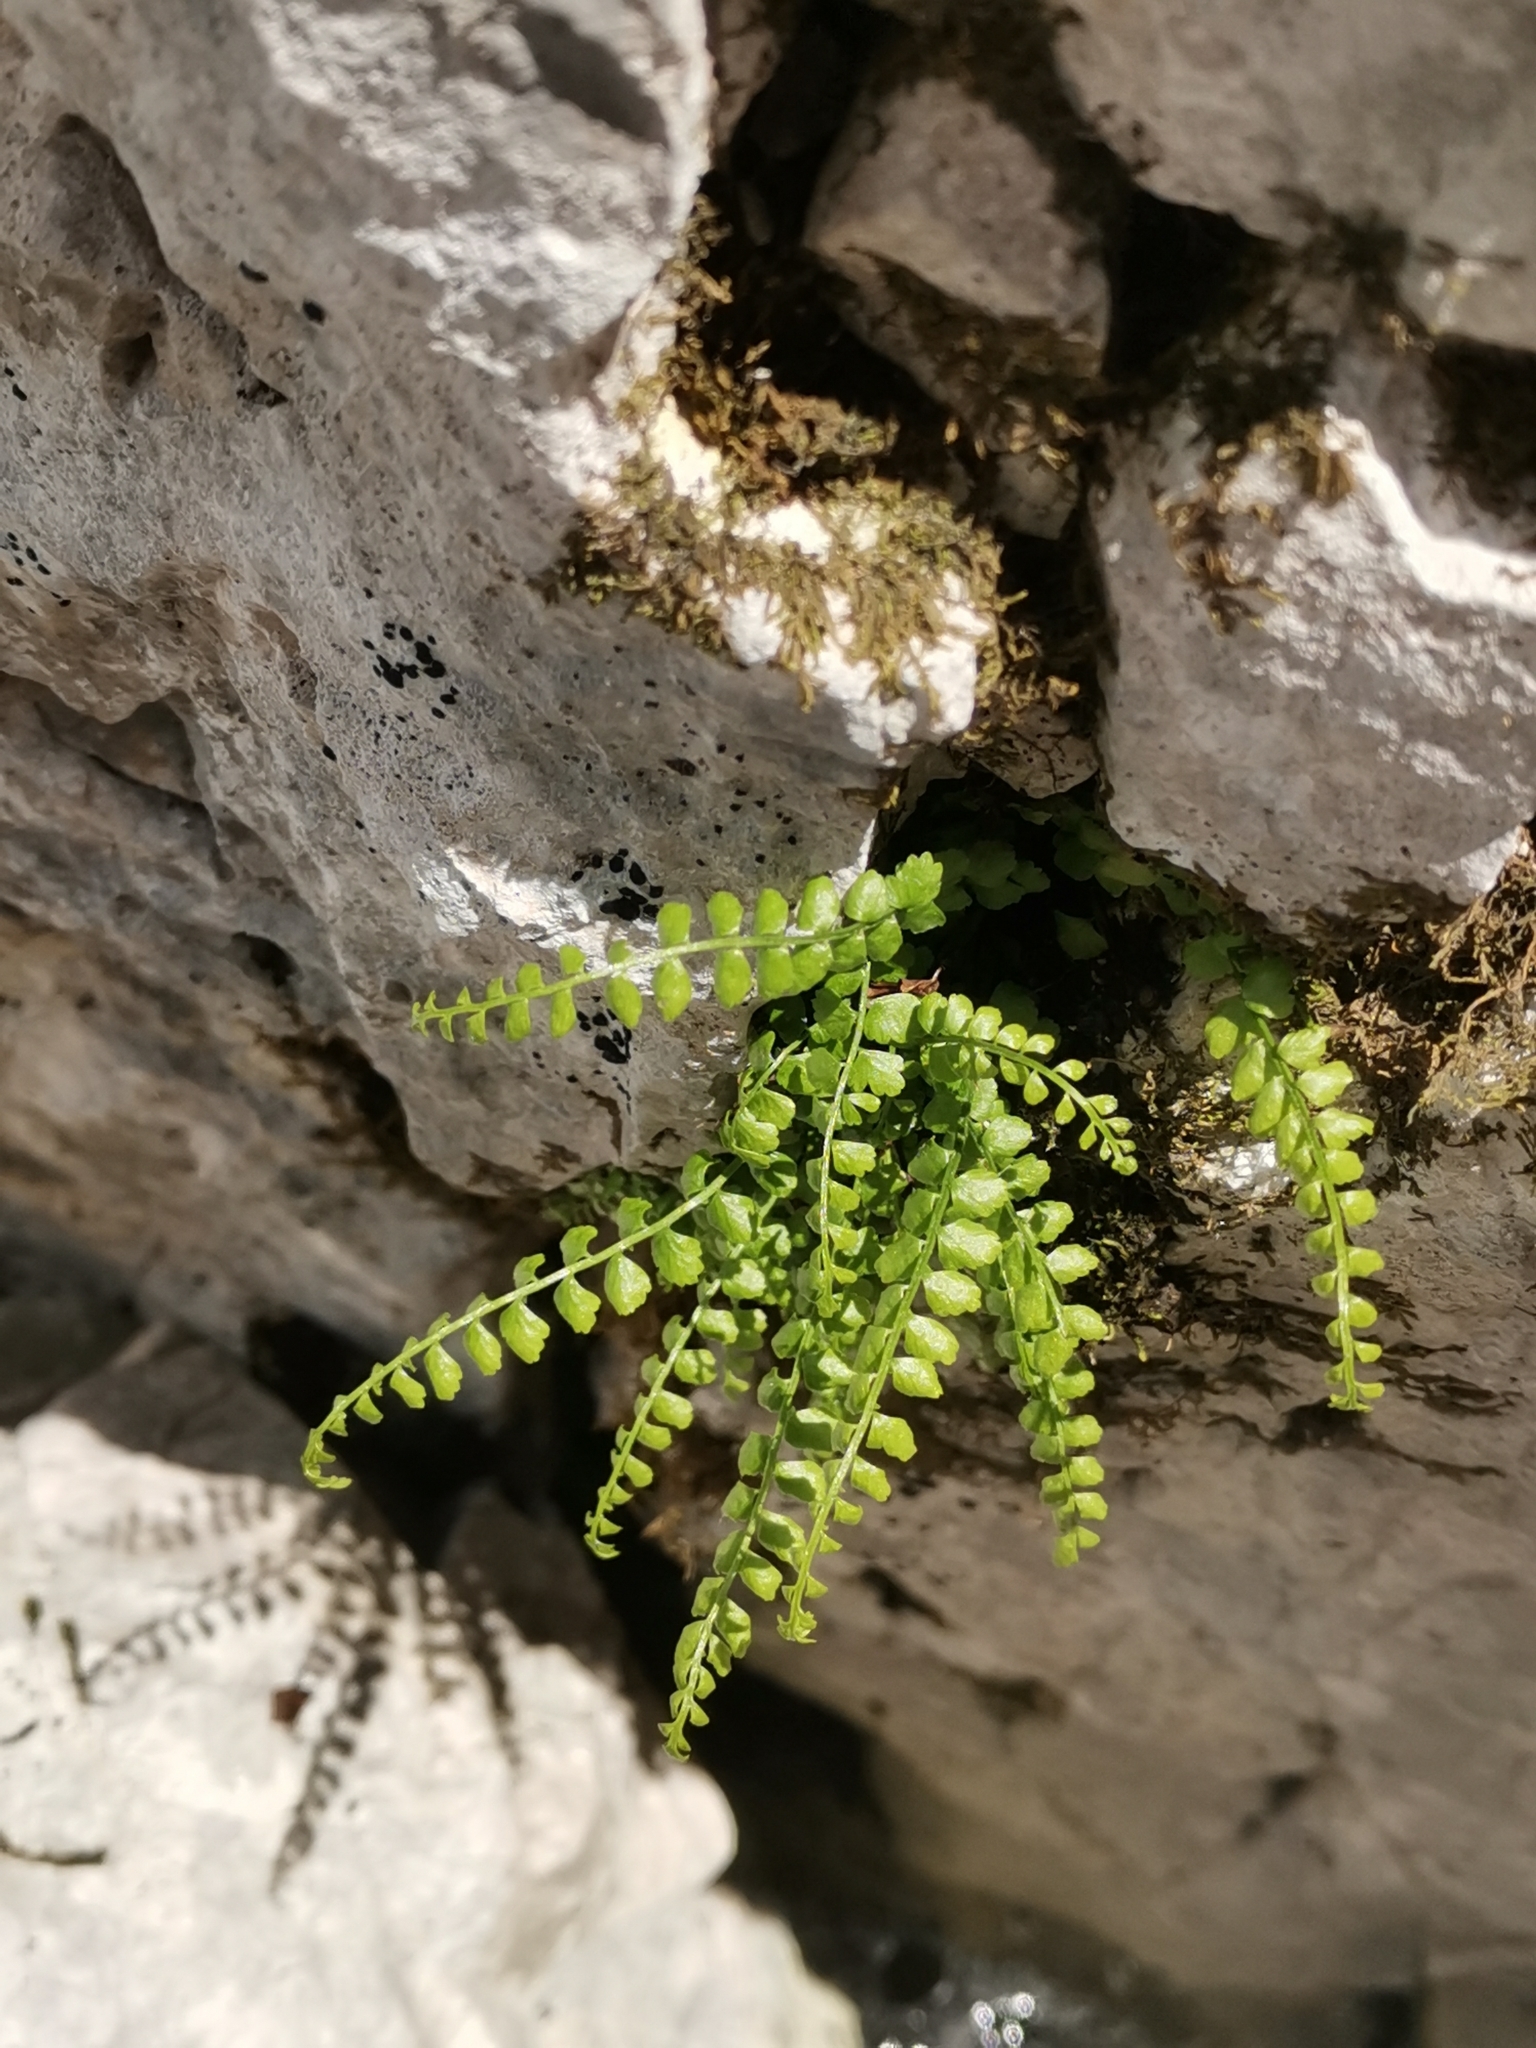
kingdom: Plantae
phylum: Tracheophyta
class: Polypodiopsida
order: Polypodiales
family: Aspleniaceae
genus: Asplenium
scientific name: Asplenium viride
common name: Green spleenwort
